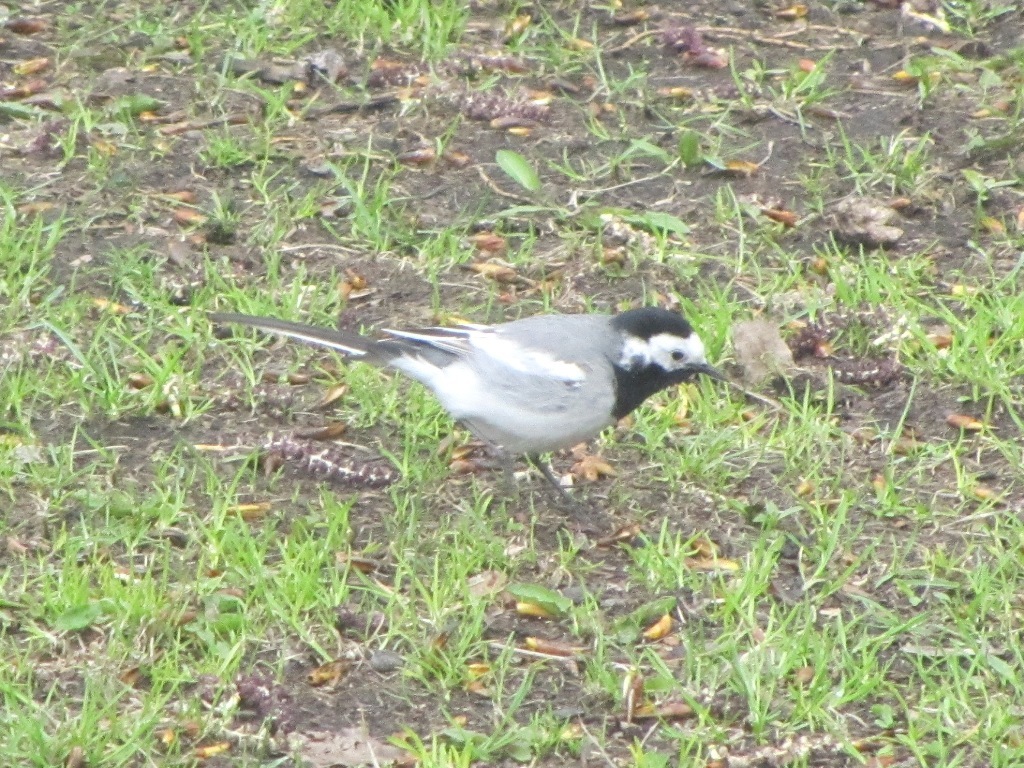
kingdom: Animalia
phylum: Chordata
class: Aves
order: Passeriformes
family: Motacillidae
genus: Motacilla
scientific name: Motacilla alba
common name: White wagtail
